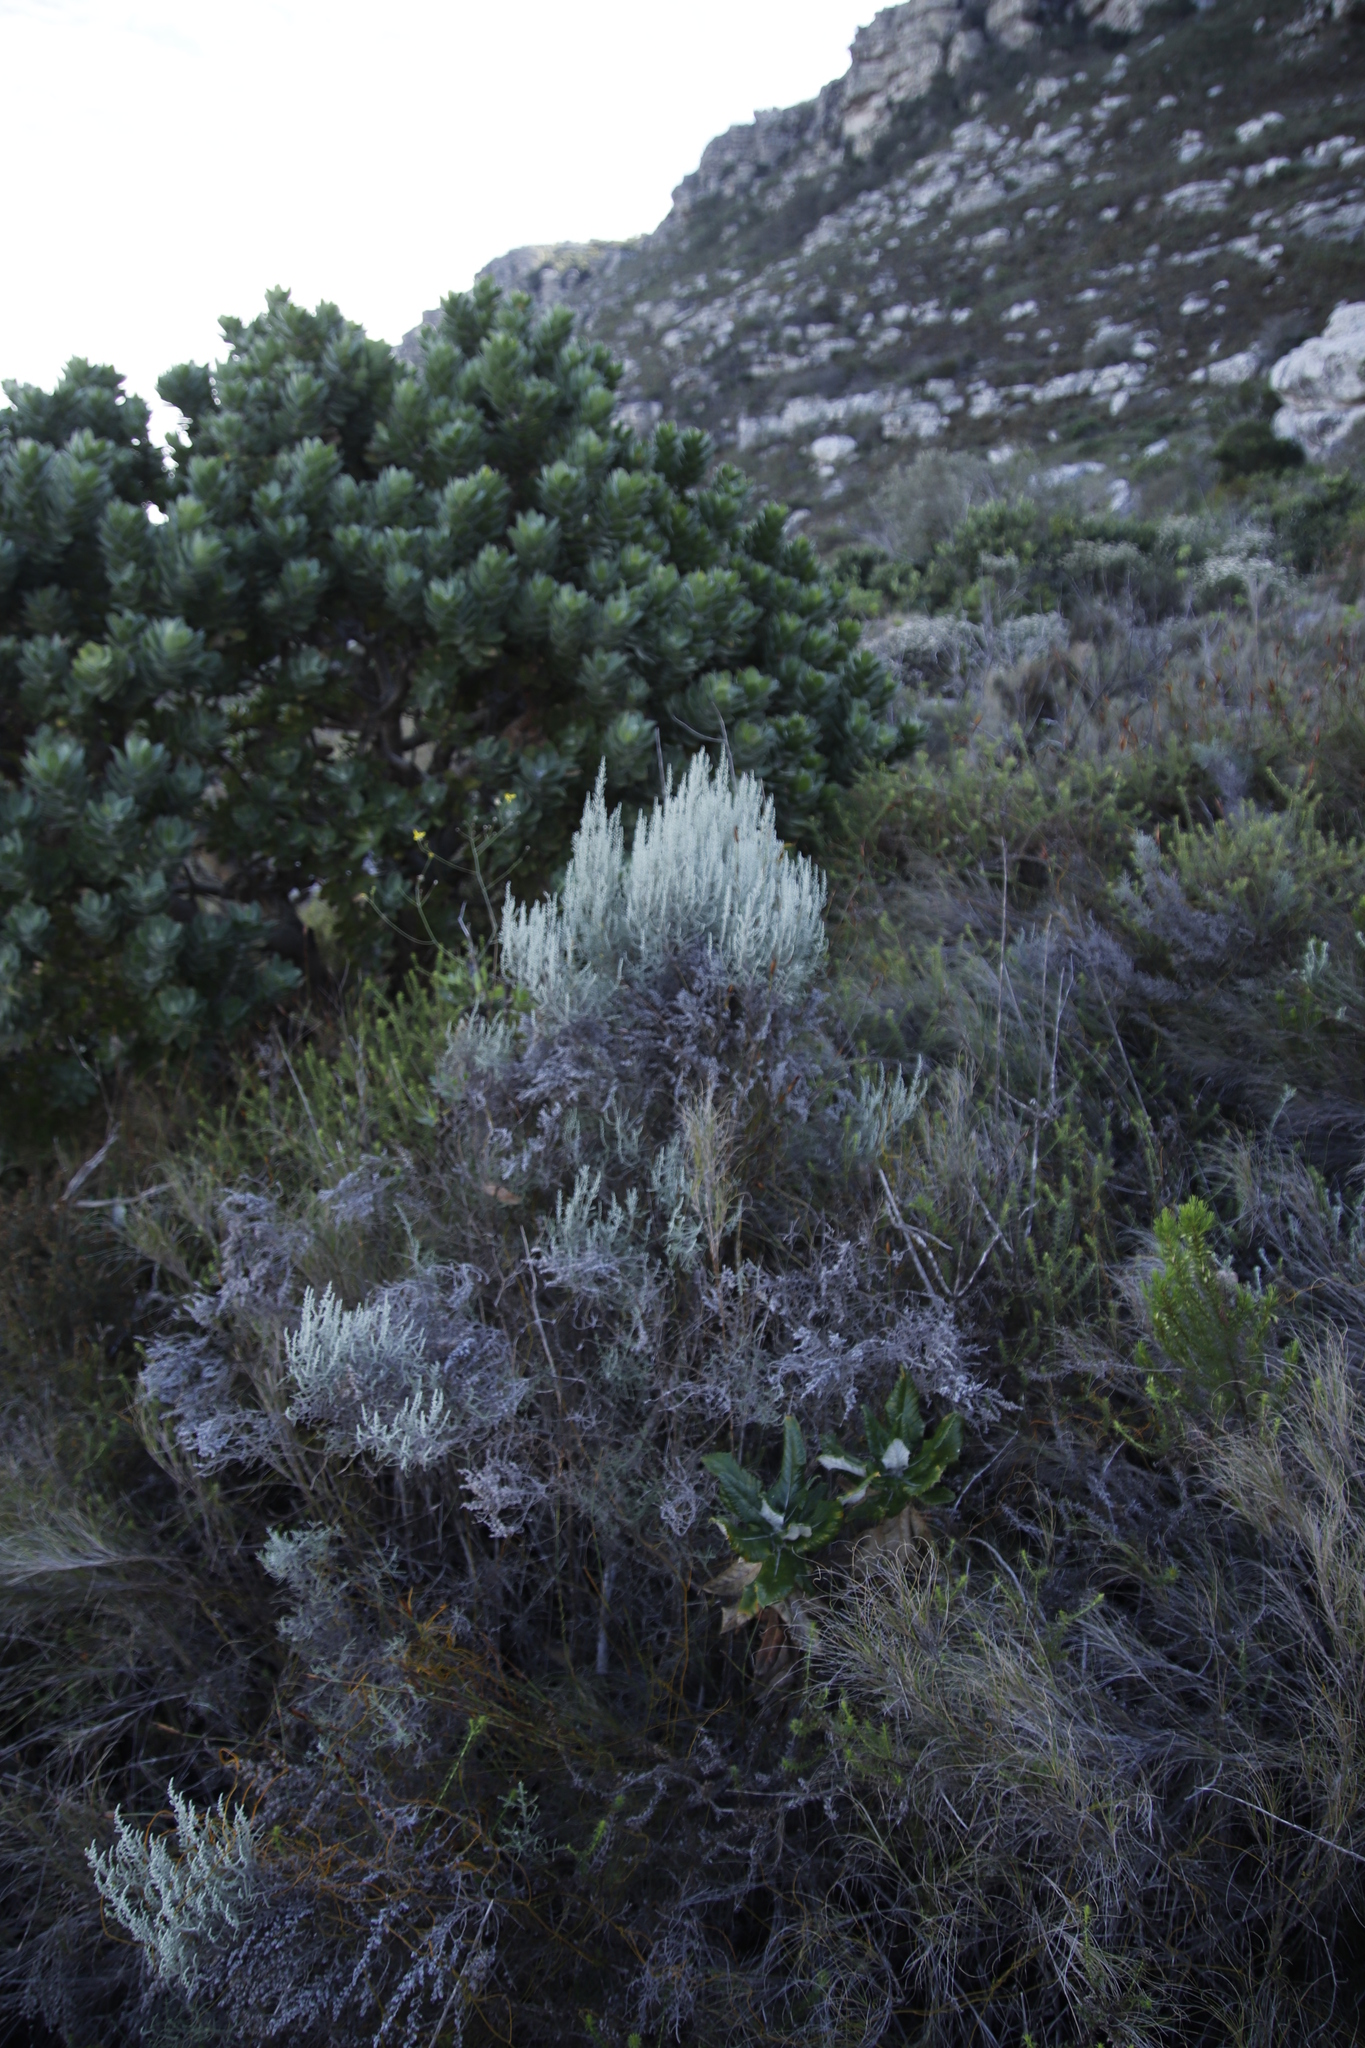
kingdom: Plantae
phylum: Tracheophyta
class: Magnoliopsida
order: Asterales
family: Asteraceae
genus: Seriphium
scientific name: Seriphium plumosum
